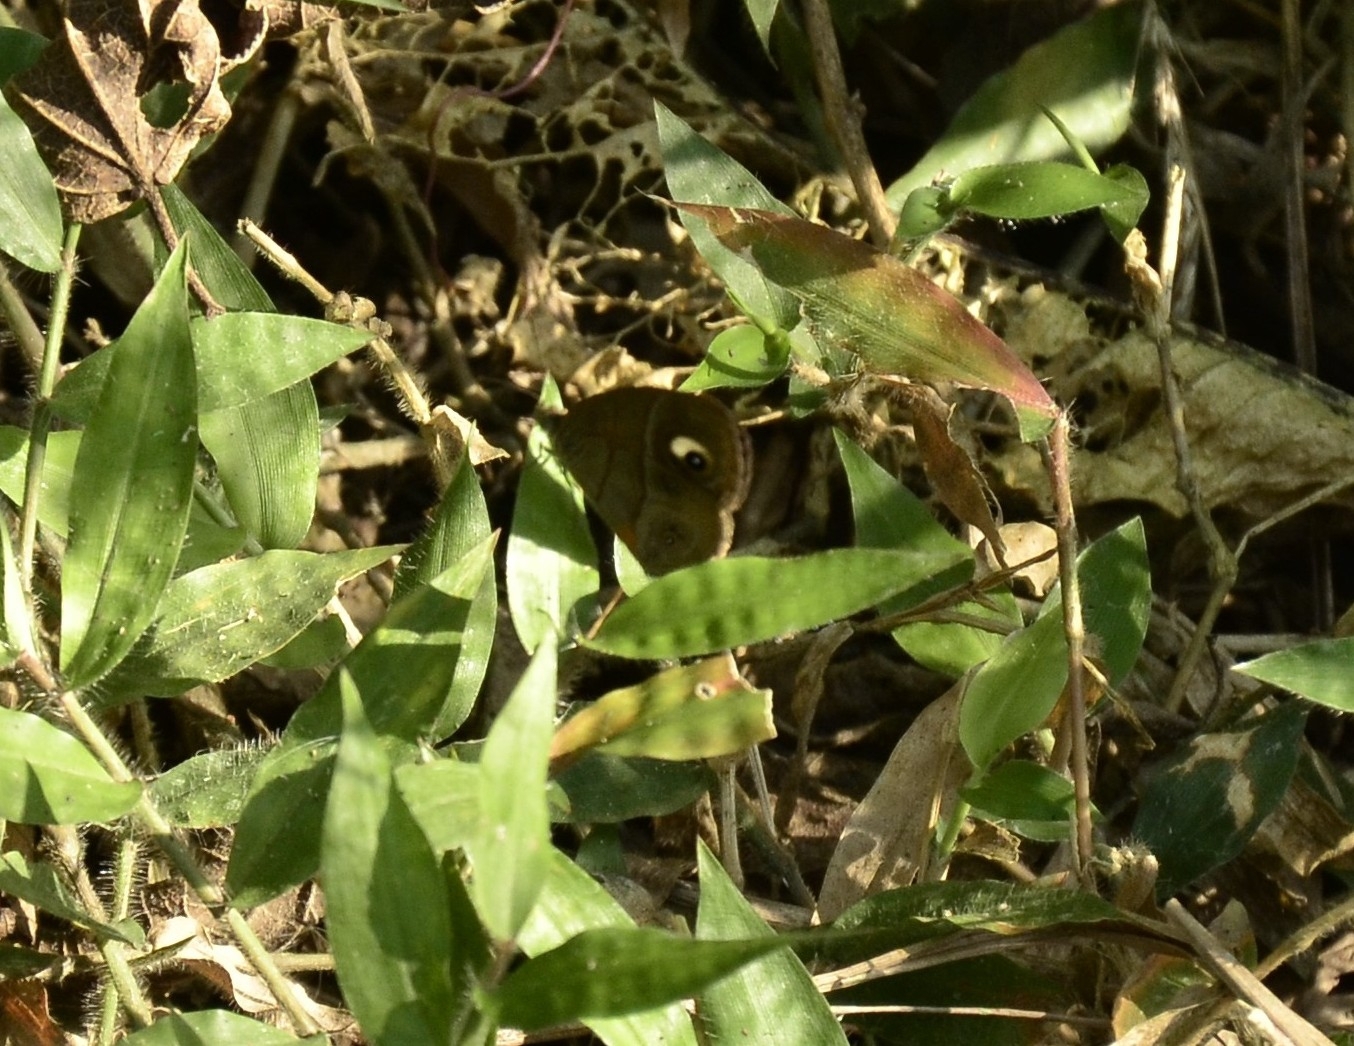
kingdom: Animalia
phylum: Arthropoda
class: Insecta
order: Lepidoptera
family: Nymphalidae
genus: Mycalesis
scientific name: Mycalesis patnia
